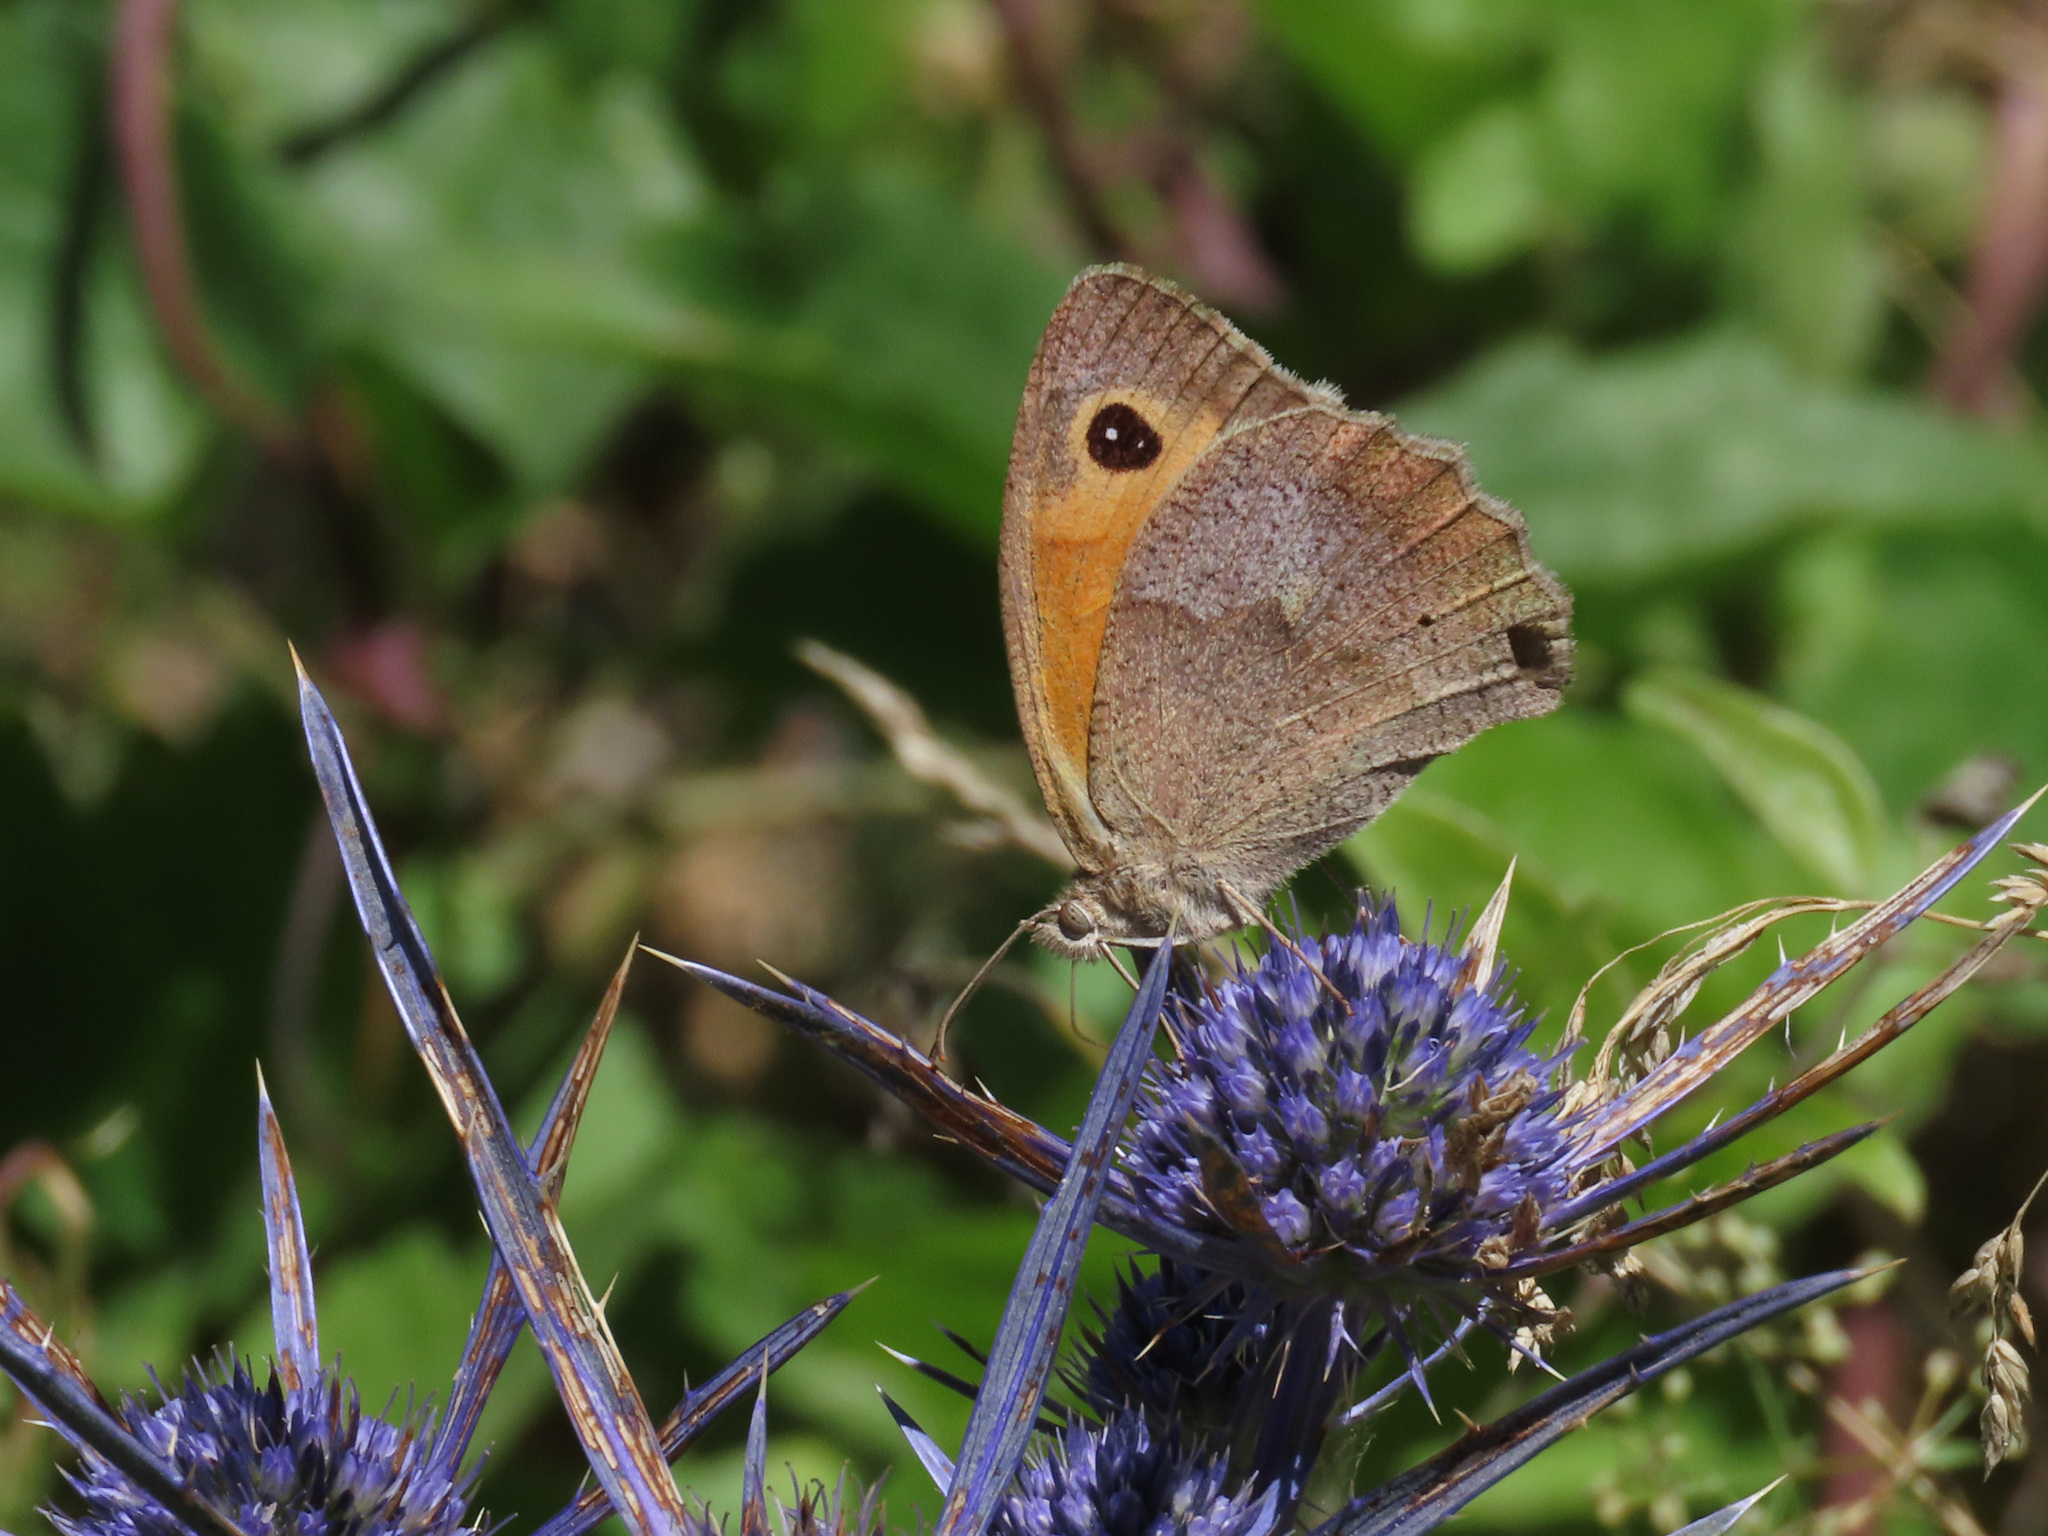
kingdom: Animalia
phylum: Arthropoda
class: Insecta
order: Lepidoptera
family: Nymphalidae
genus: Maniola
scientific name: Maniola jurtina
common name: Meadow brown
